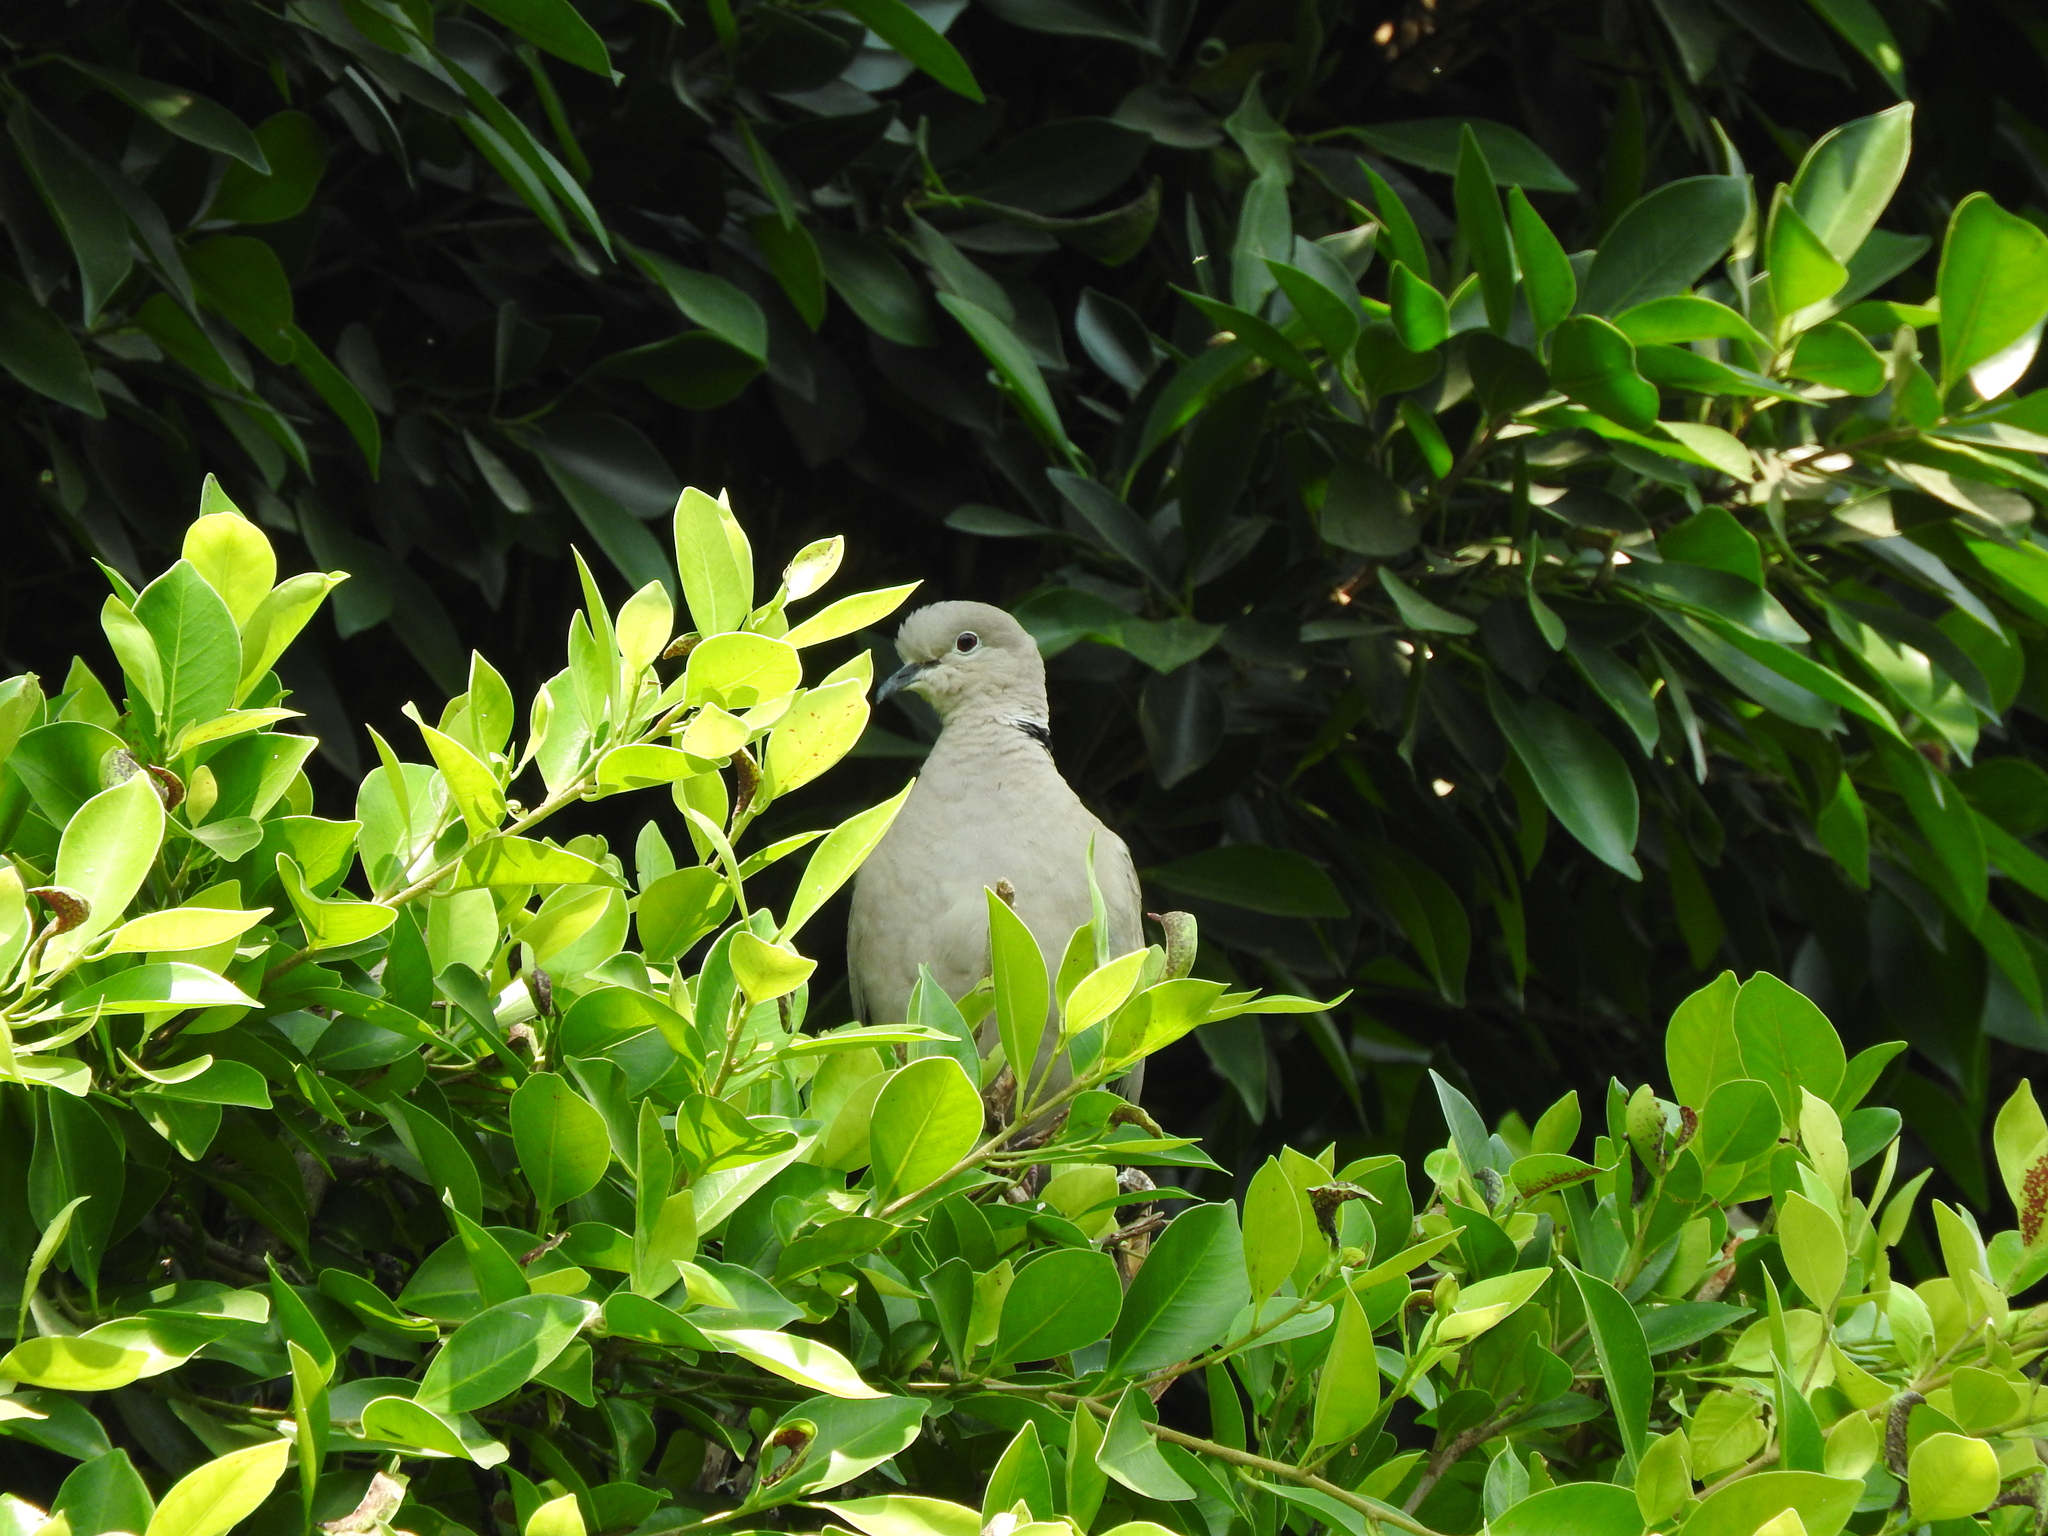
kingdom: Animalia
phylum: Chordata
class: Aves
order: Columbiformes
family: Columbidae
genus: Streptopelia
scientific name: Streptopelia decaocto
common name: Eurasian collared dove
